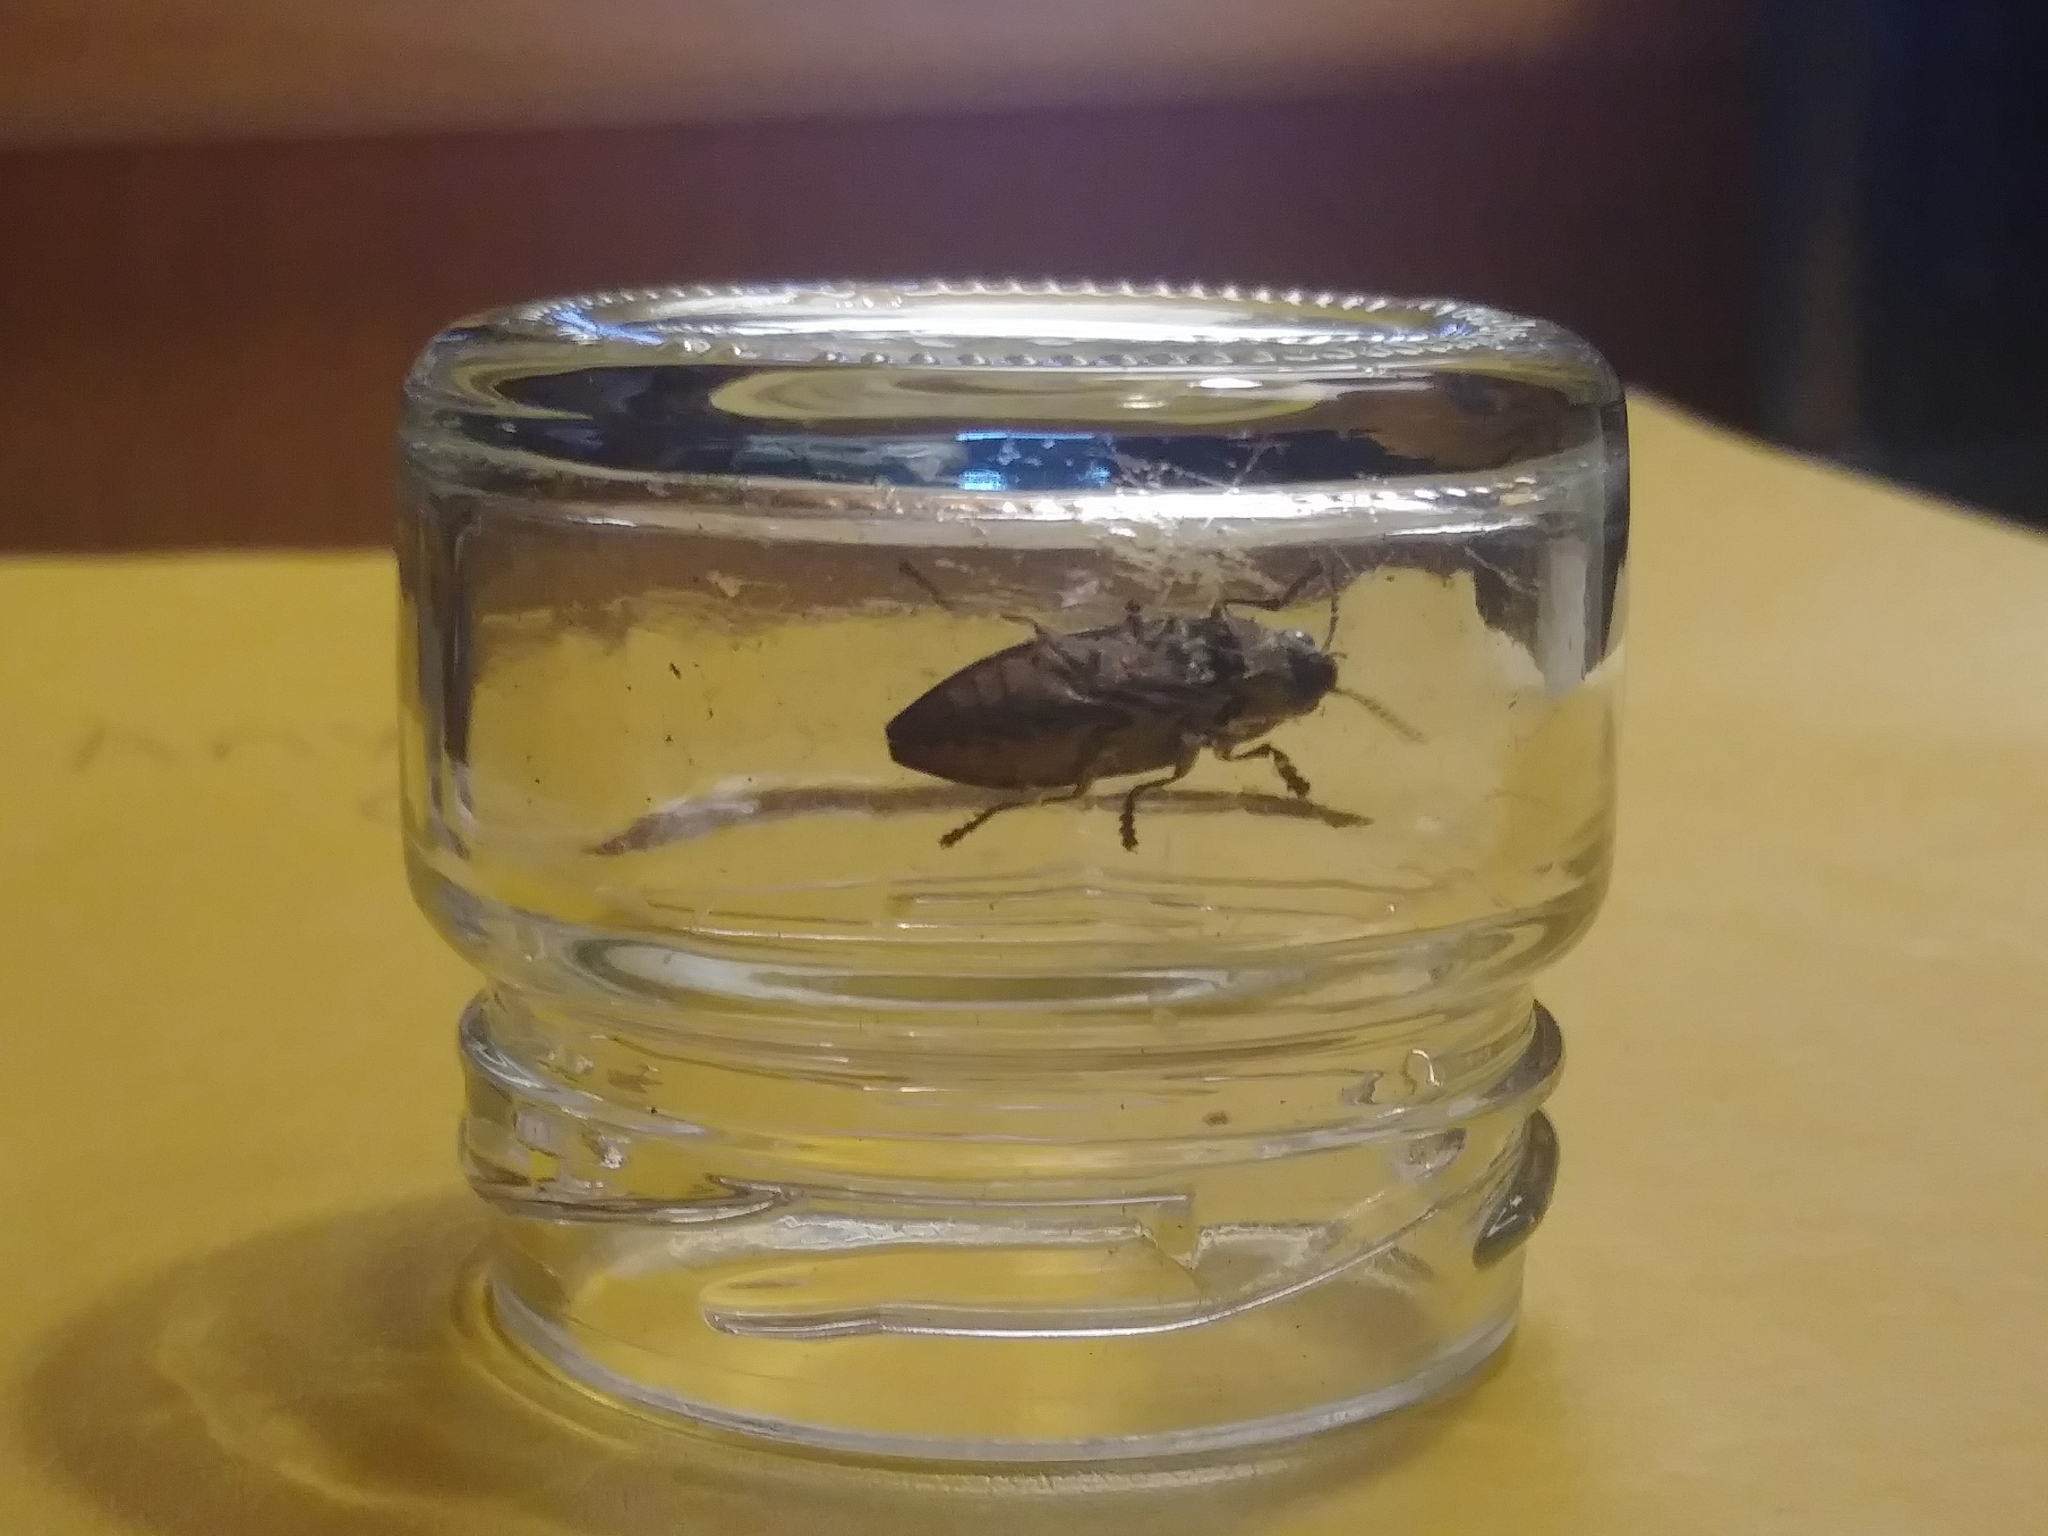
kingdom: Animalia
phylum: Arthropoda
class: Insecta
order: Coleoptera
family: Buprestidae
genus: Buprestis
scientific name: Buprestis striata
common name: Striated jewel beetle
